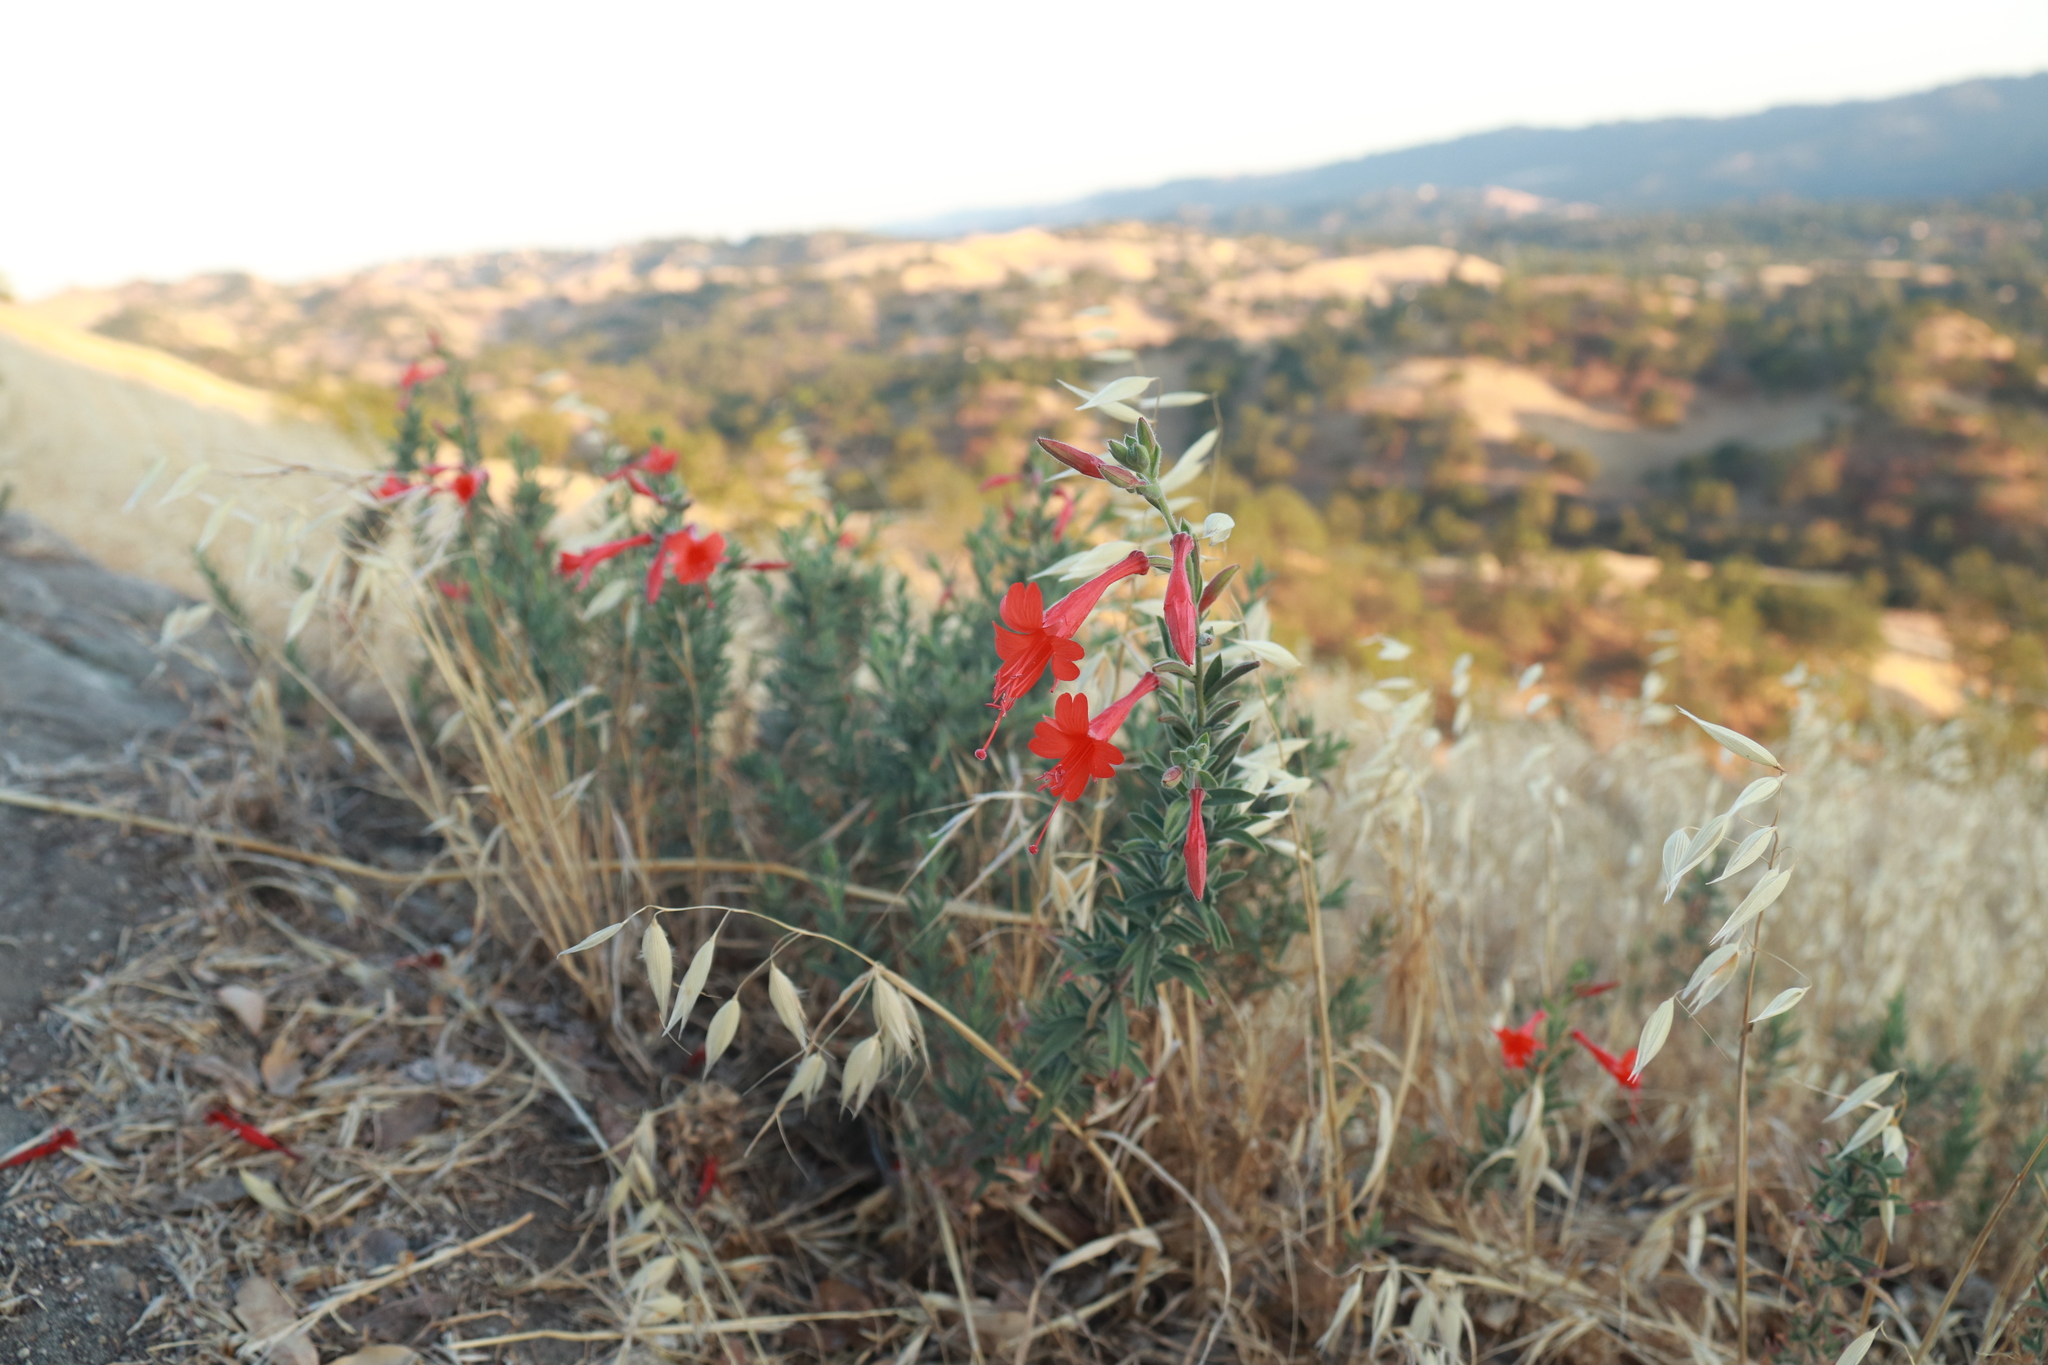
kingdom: Plantae
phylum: Tracheophyta
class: Magnoliopsida
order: Myrtales
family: Onagraceae
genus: Epilobium
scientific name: Epilobium canum
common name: California-fuchsia
